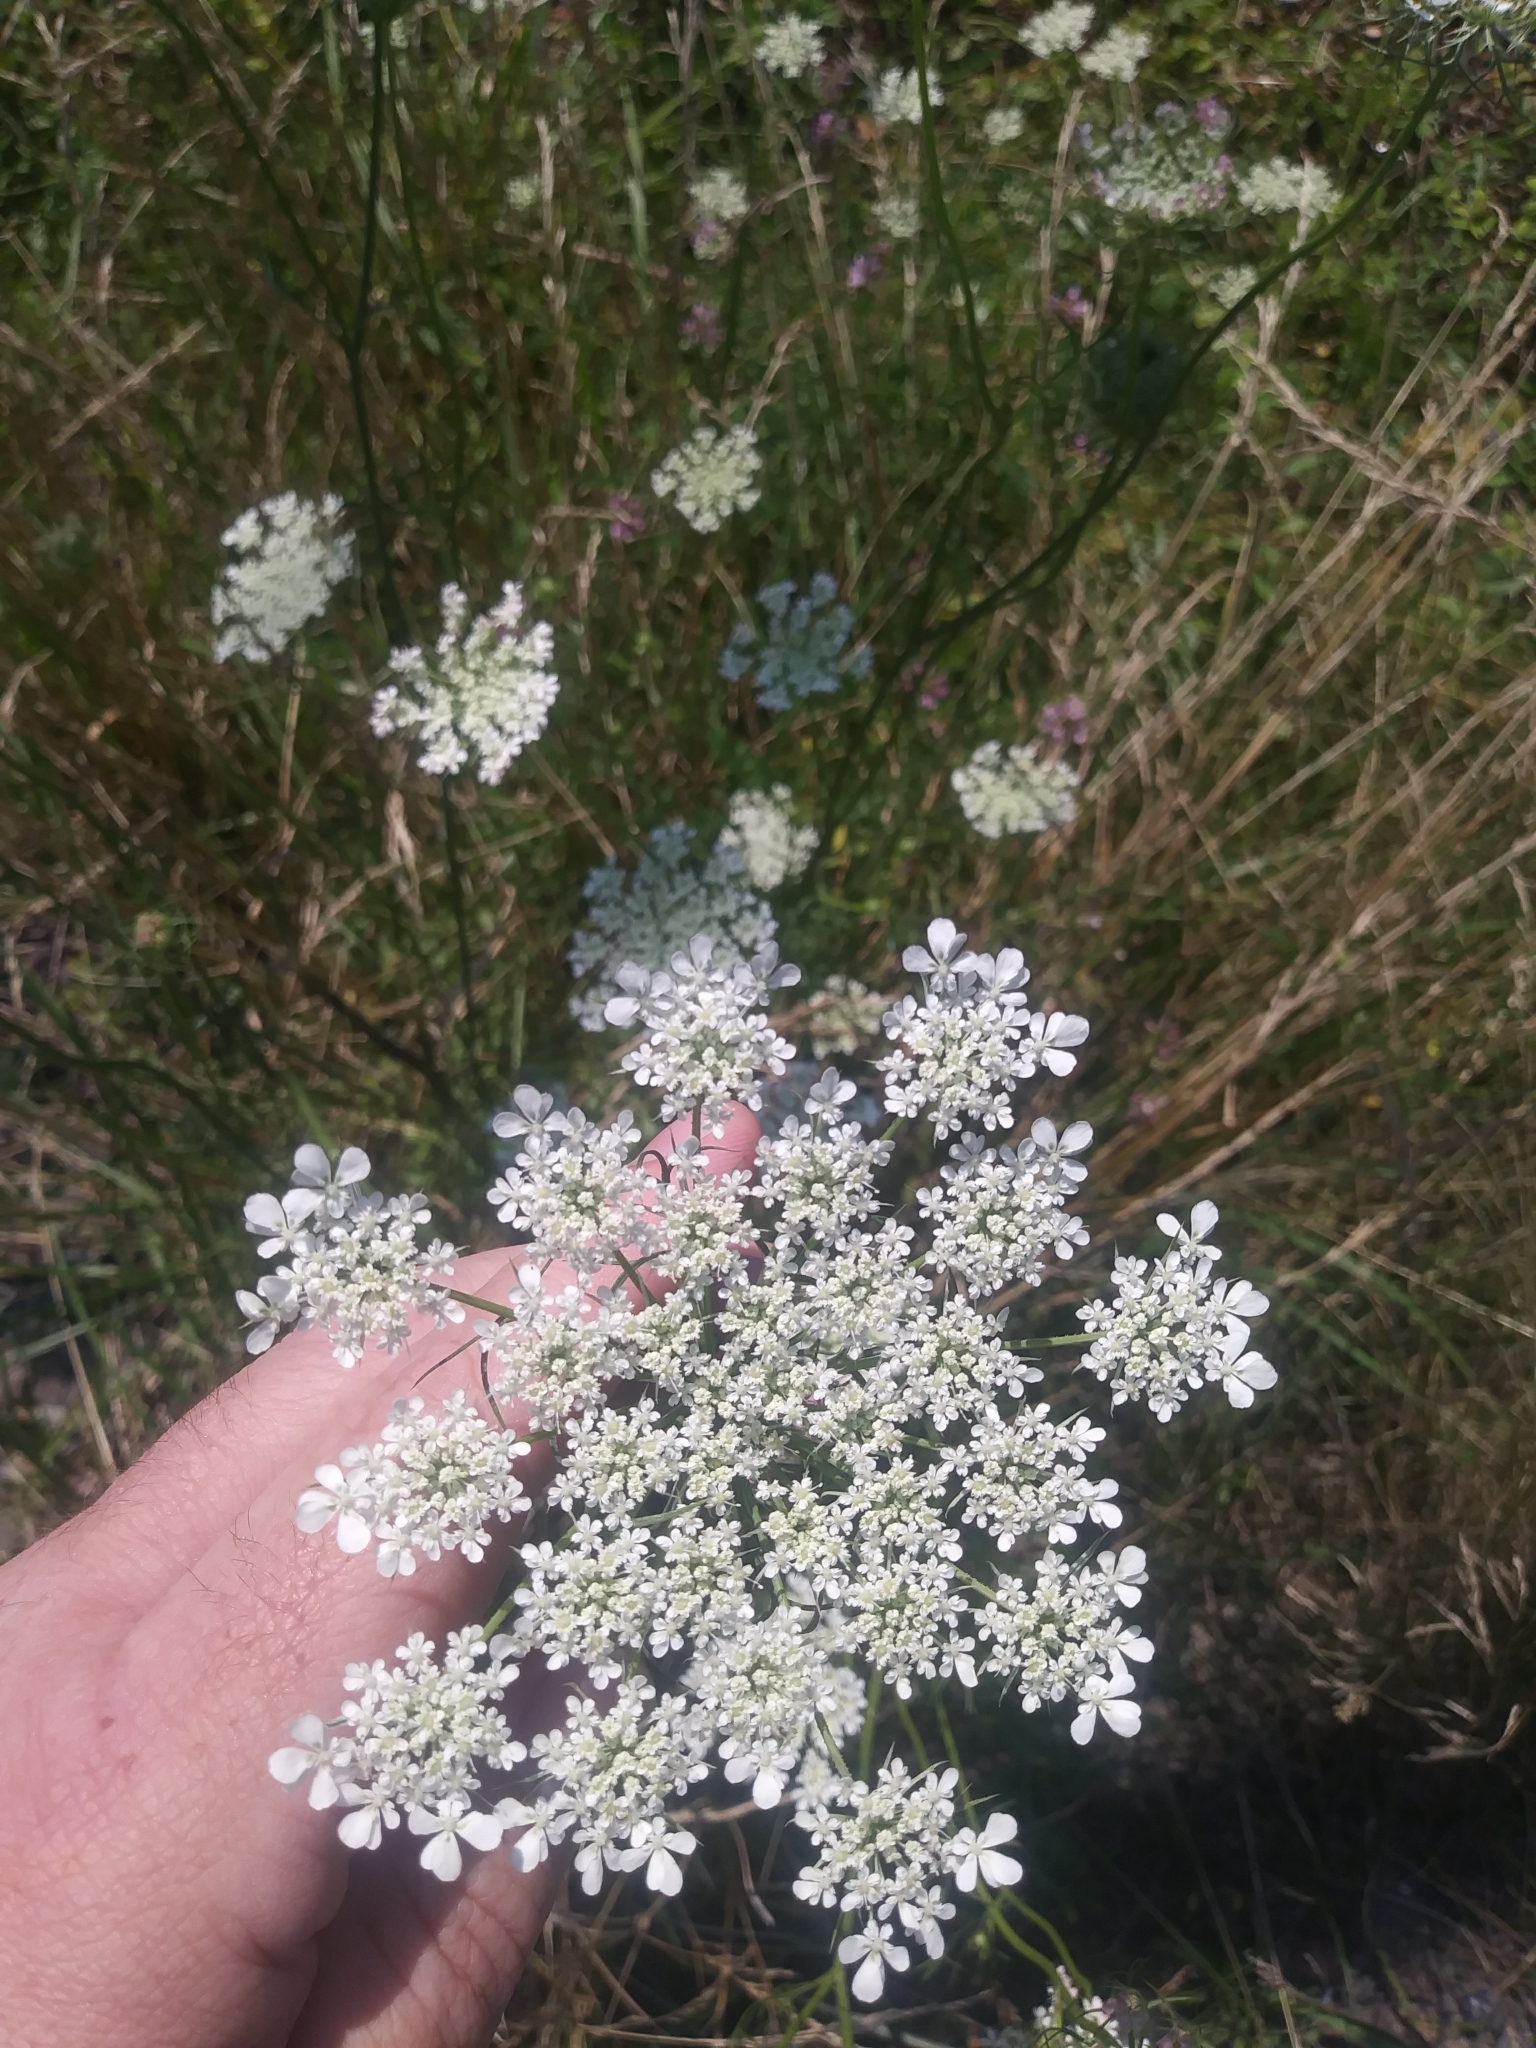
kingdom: Plantae
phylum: Tracheophyta
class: Magnoliopsida
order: Apiales
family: Apiaceae
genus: Daucus
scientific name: Daucus carota
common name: Wild carrot
